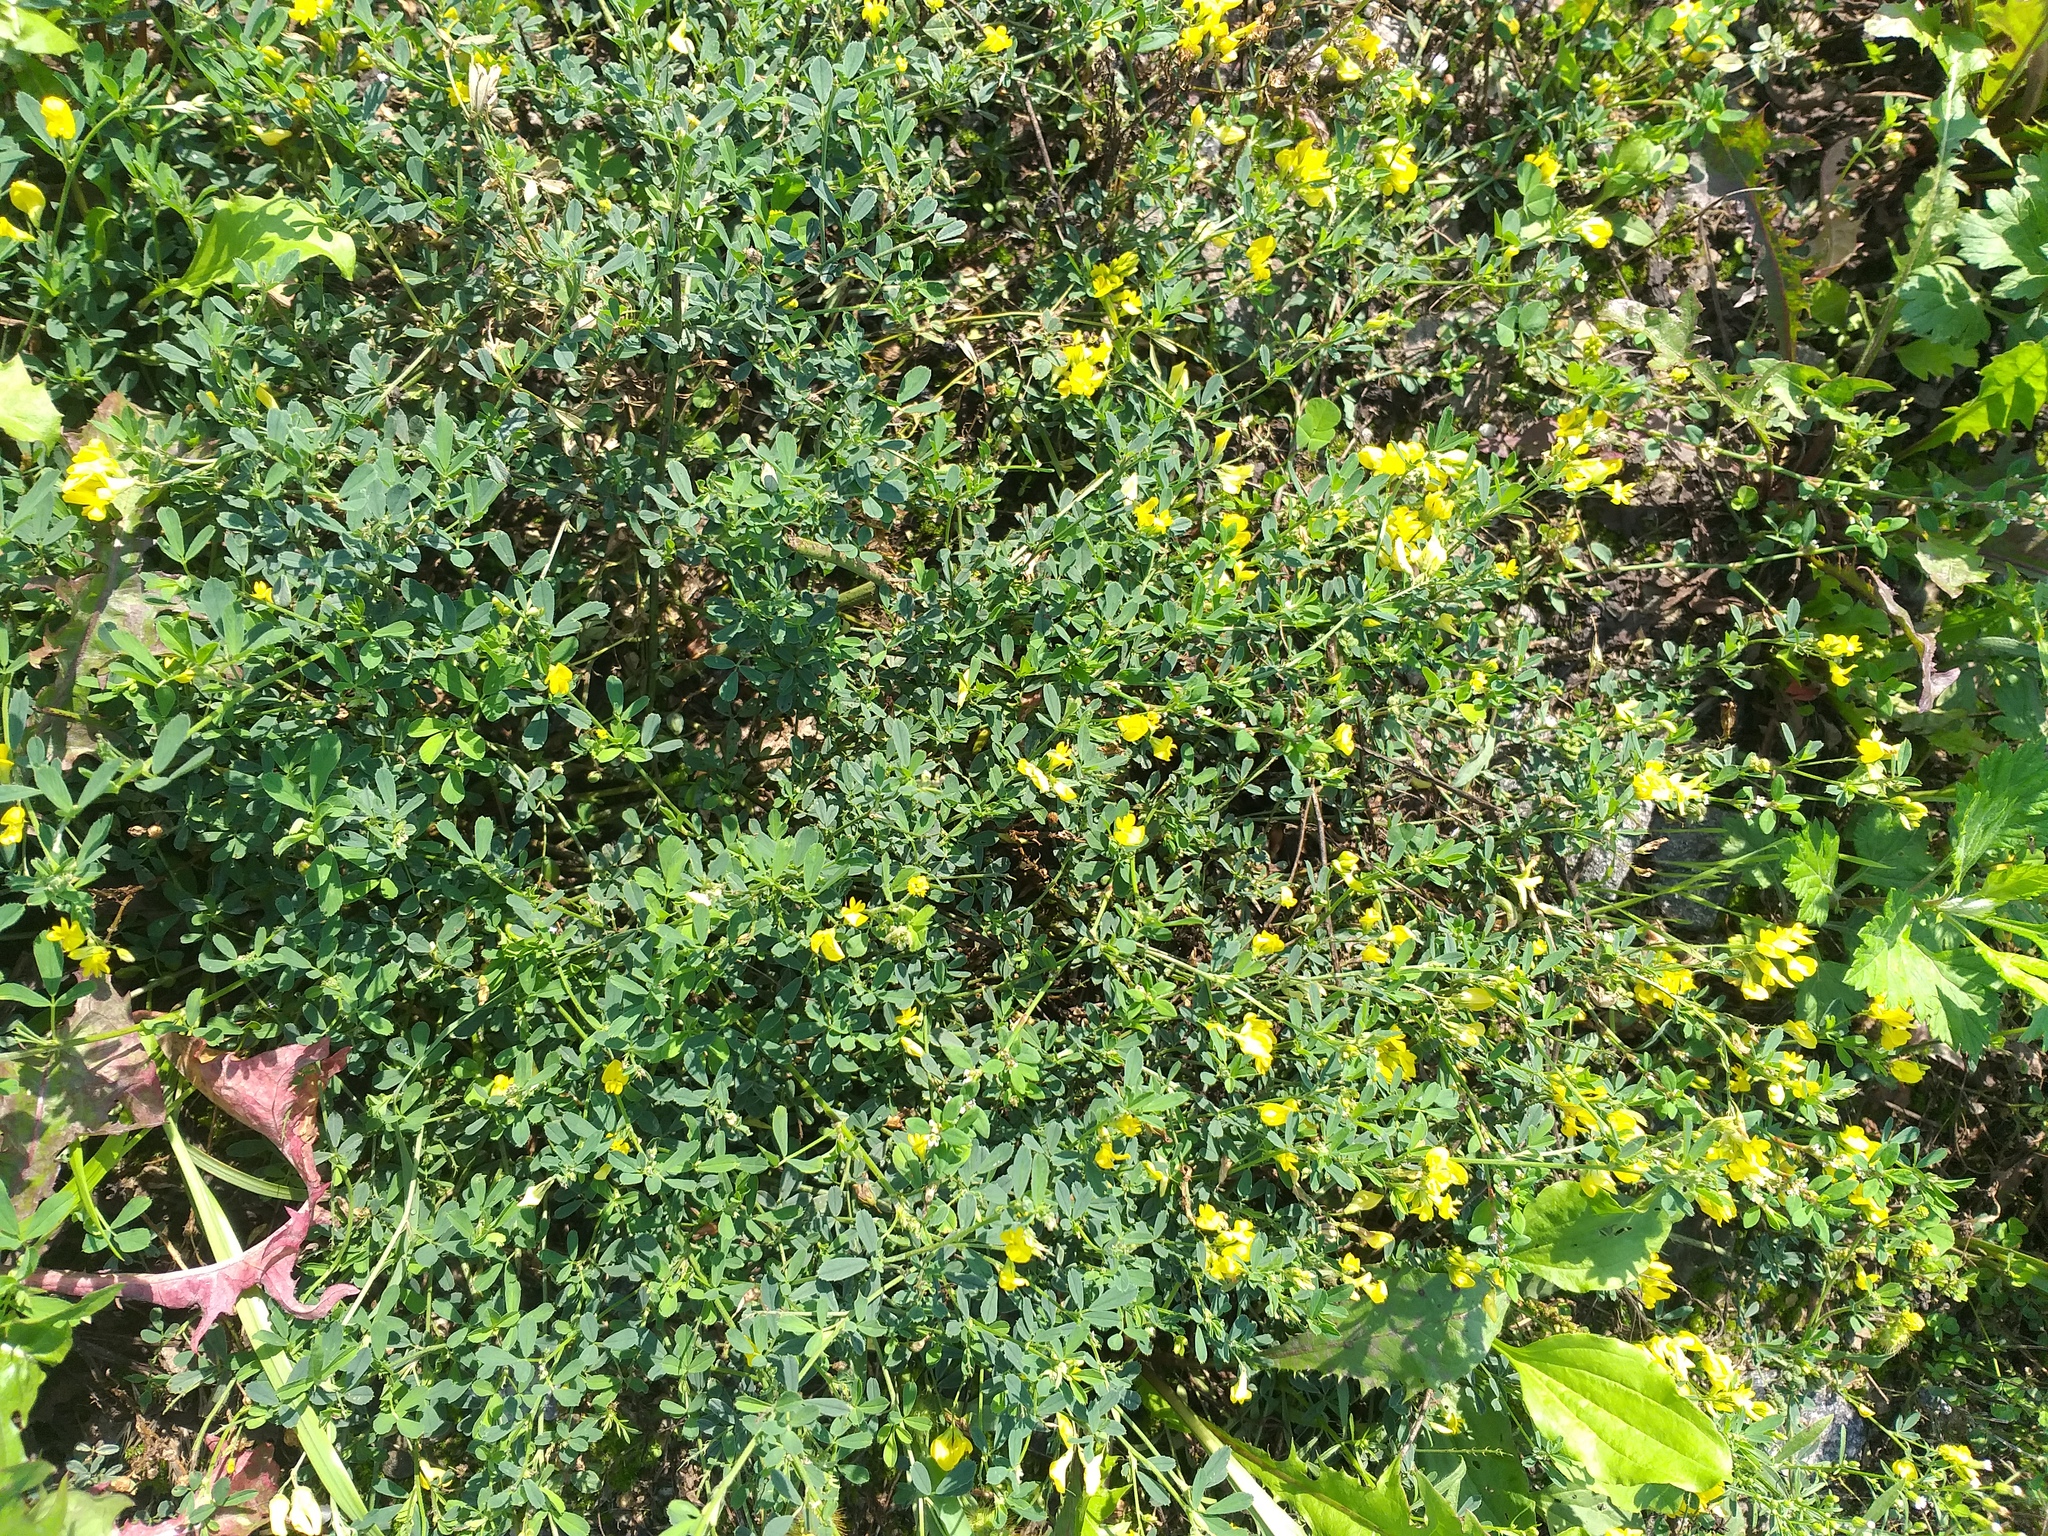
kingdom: Plantae
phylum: Tracheophyta
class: Magnoliopsida
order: Fabales
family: Fabaceae
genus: Medicago
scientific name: Medicago falcata
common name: Sickle medick
